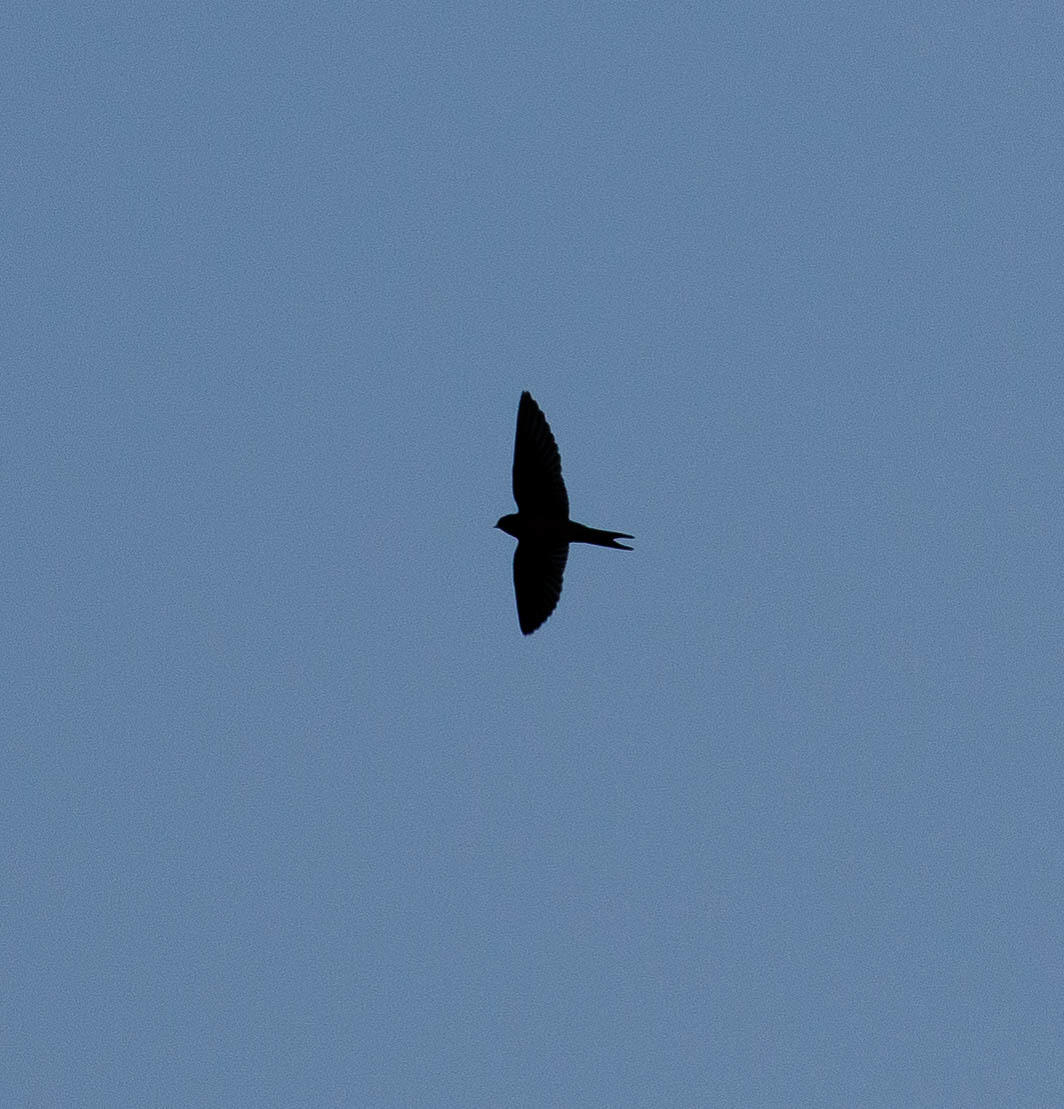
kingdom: Animalia
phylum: Chordata
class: Aves
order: Passeriformes
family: Hirundinidae
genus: Hirundo
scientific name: Hirundo rustica
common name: Barn swallow
